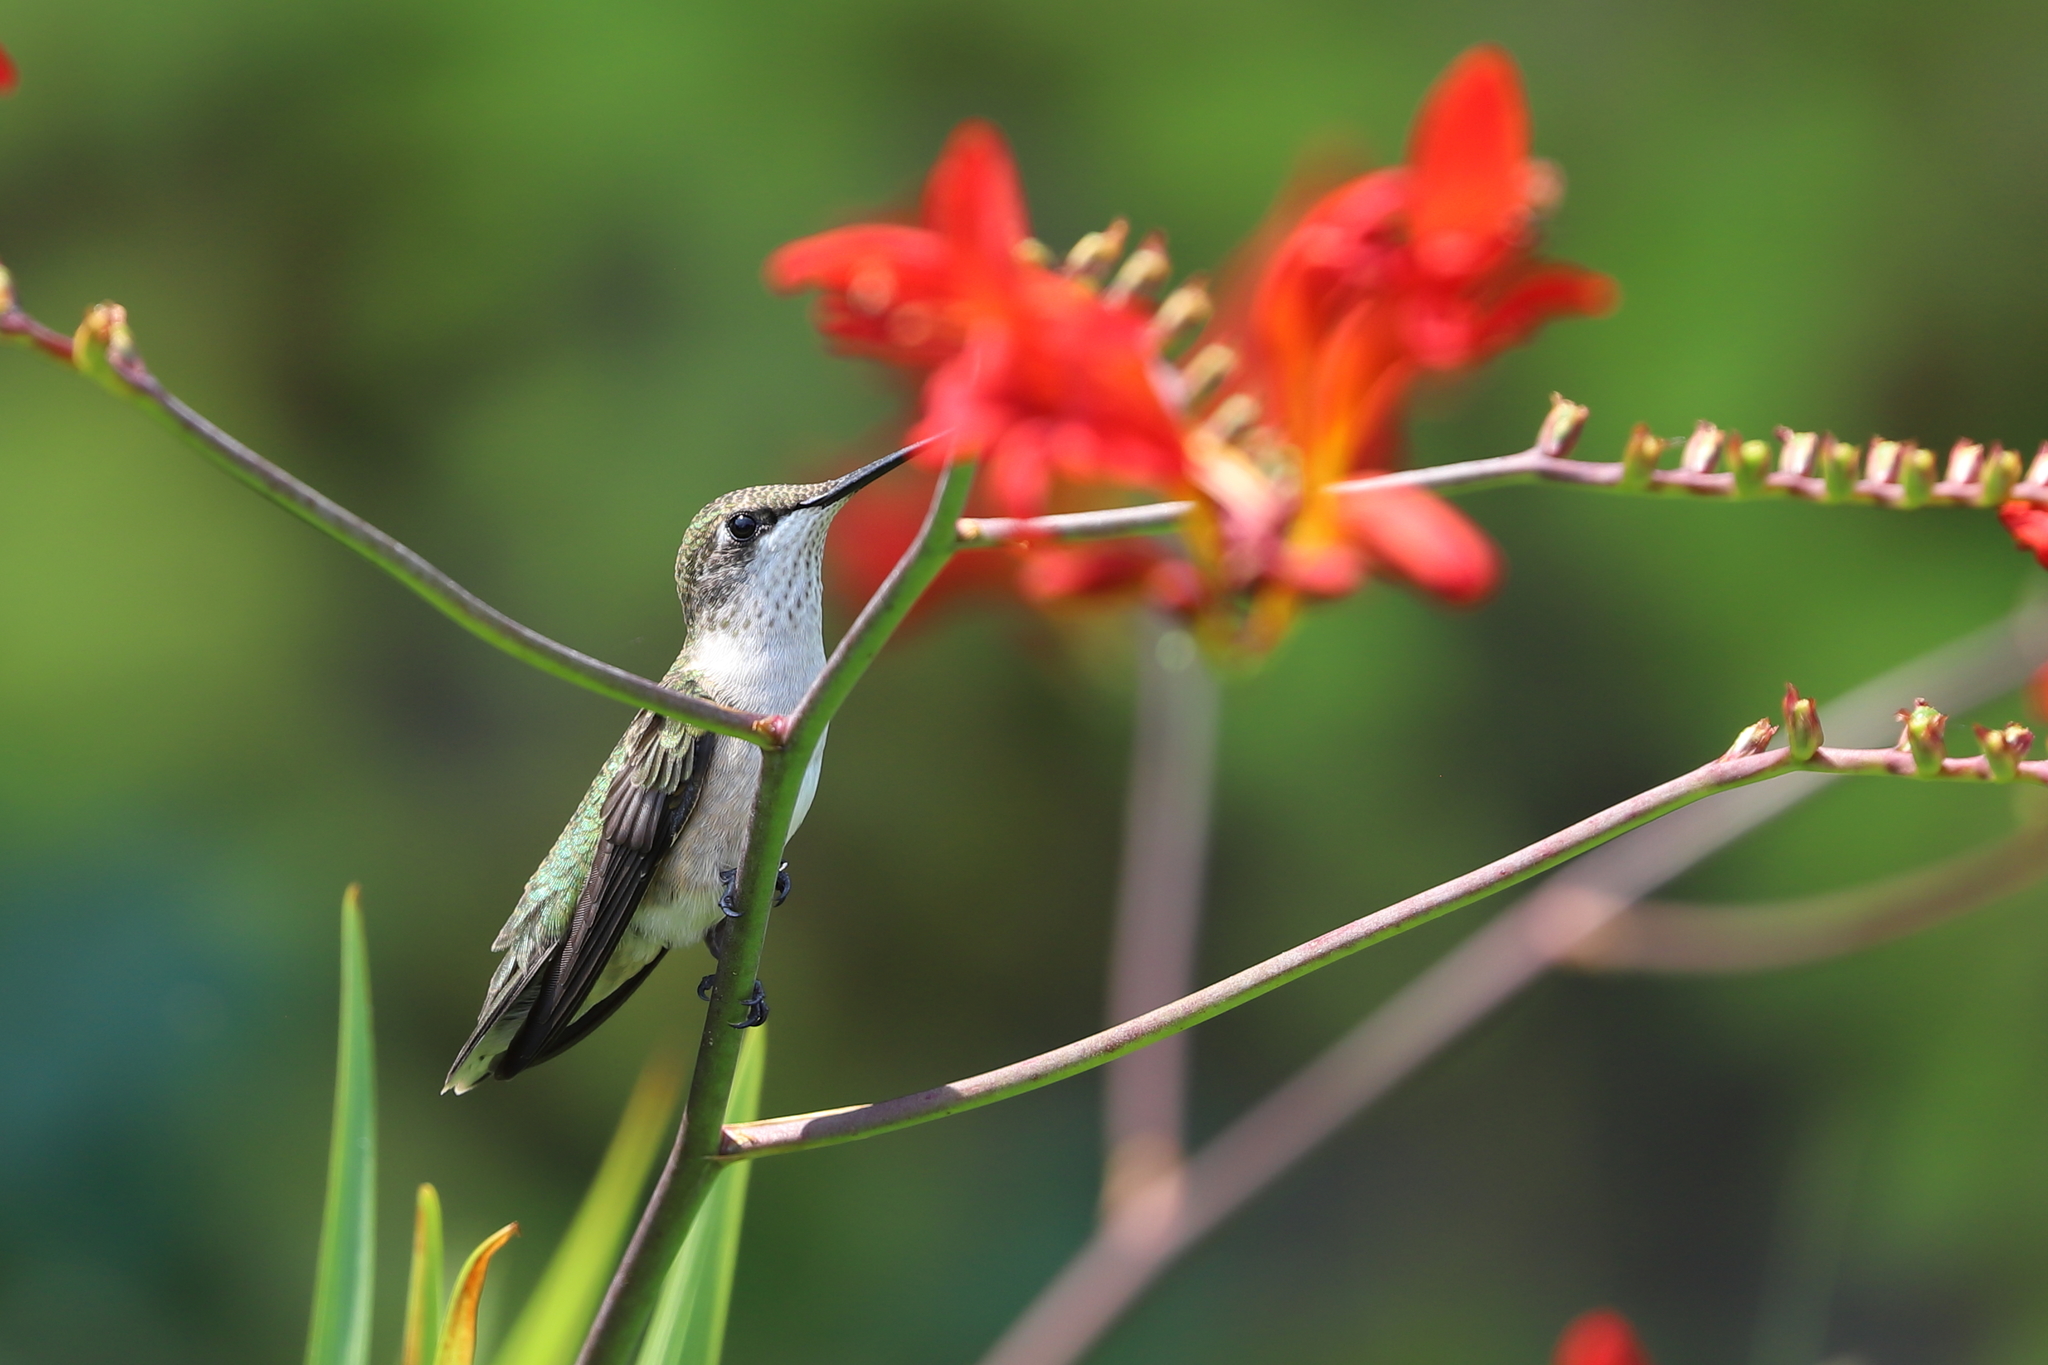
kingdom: Animalia
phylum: Chordata
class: Aves
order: Apodiformes
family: Trochilidae
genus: Archilochus
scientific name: Archilochus colubris
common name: Ruby-throated hummingbird
